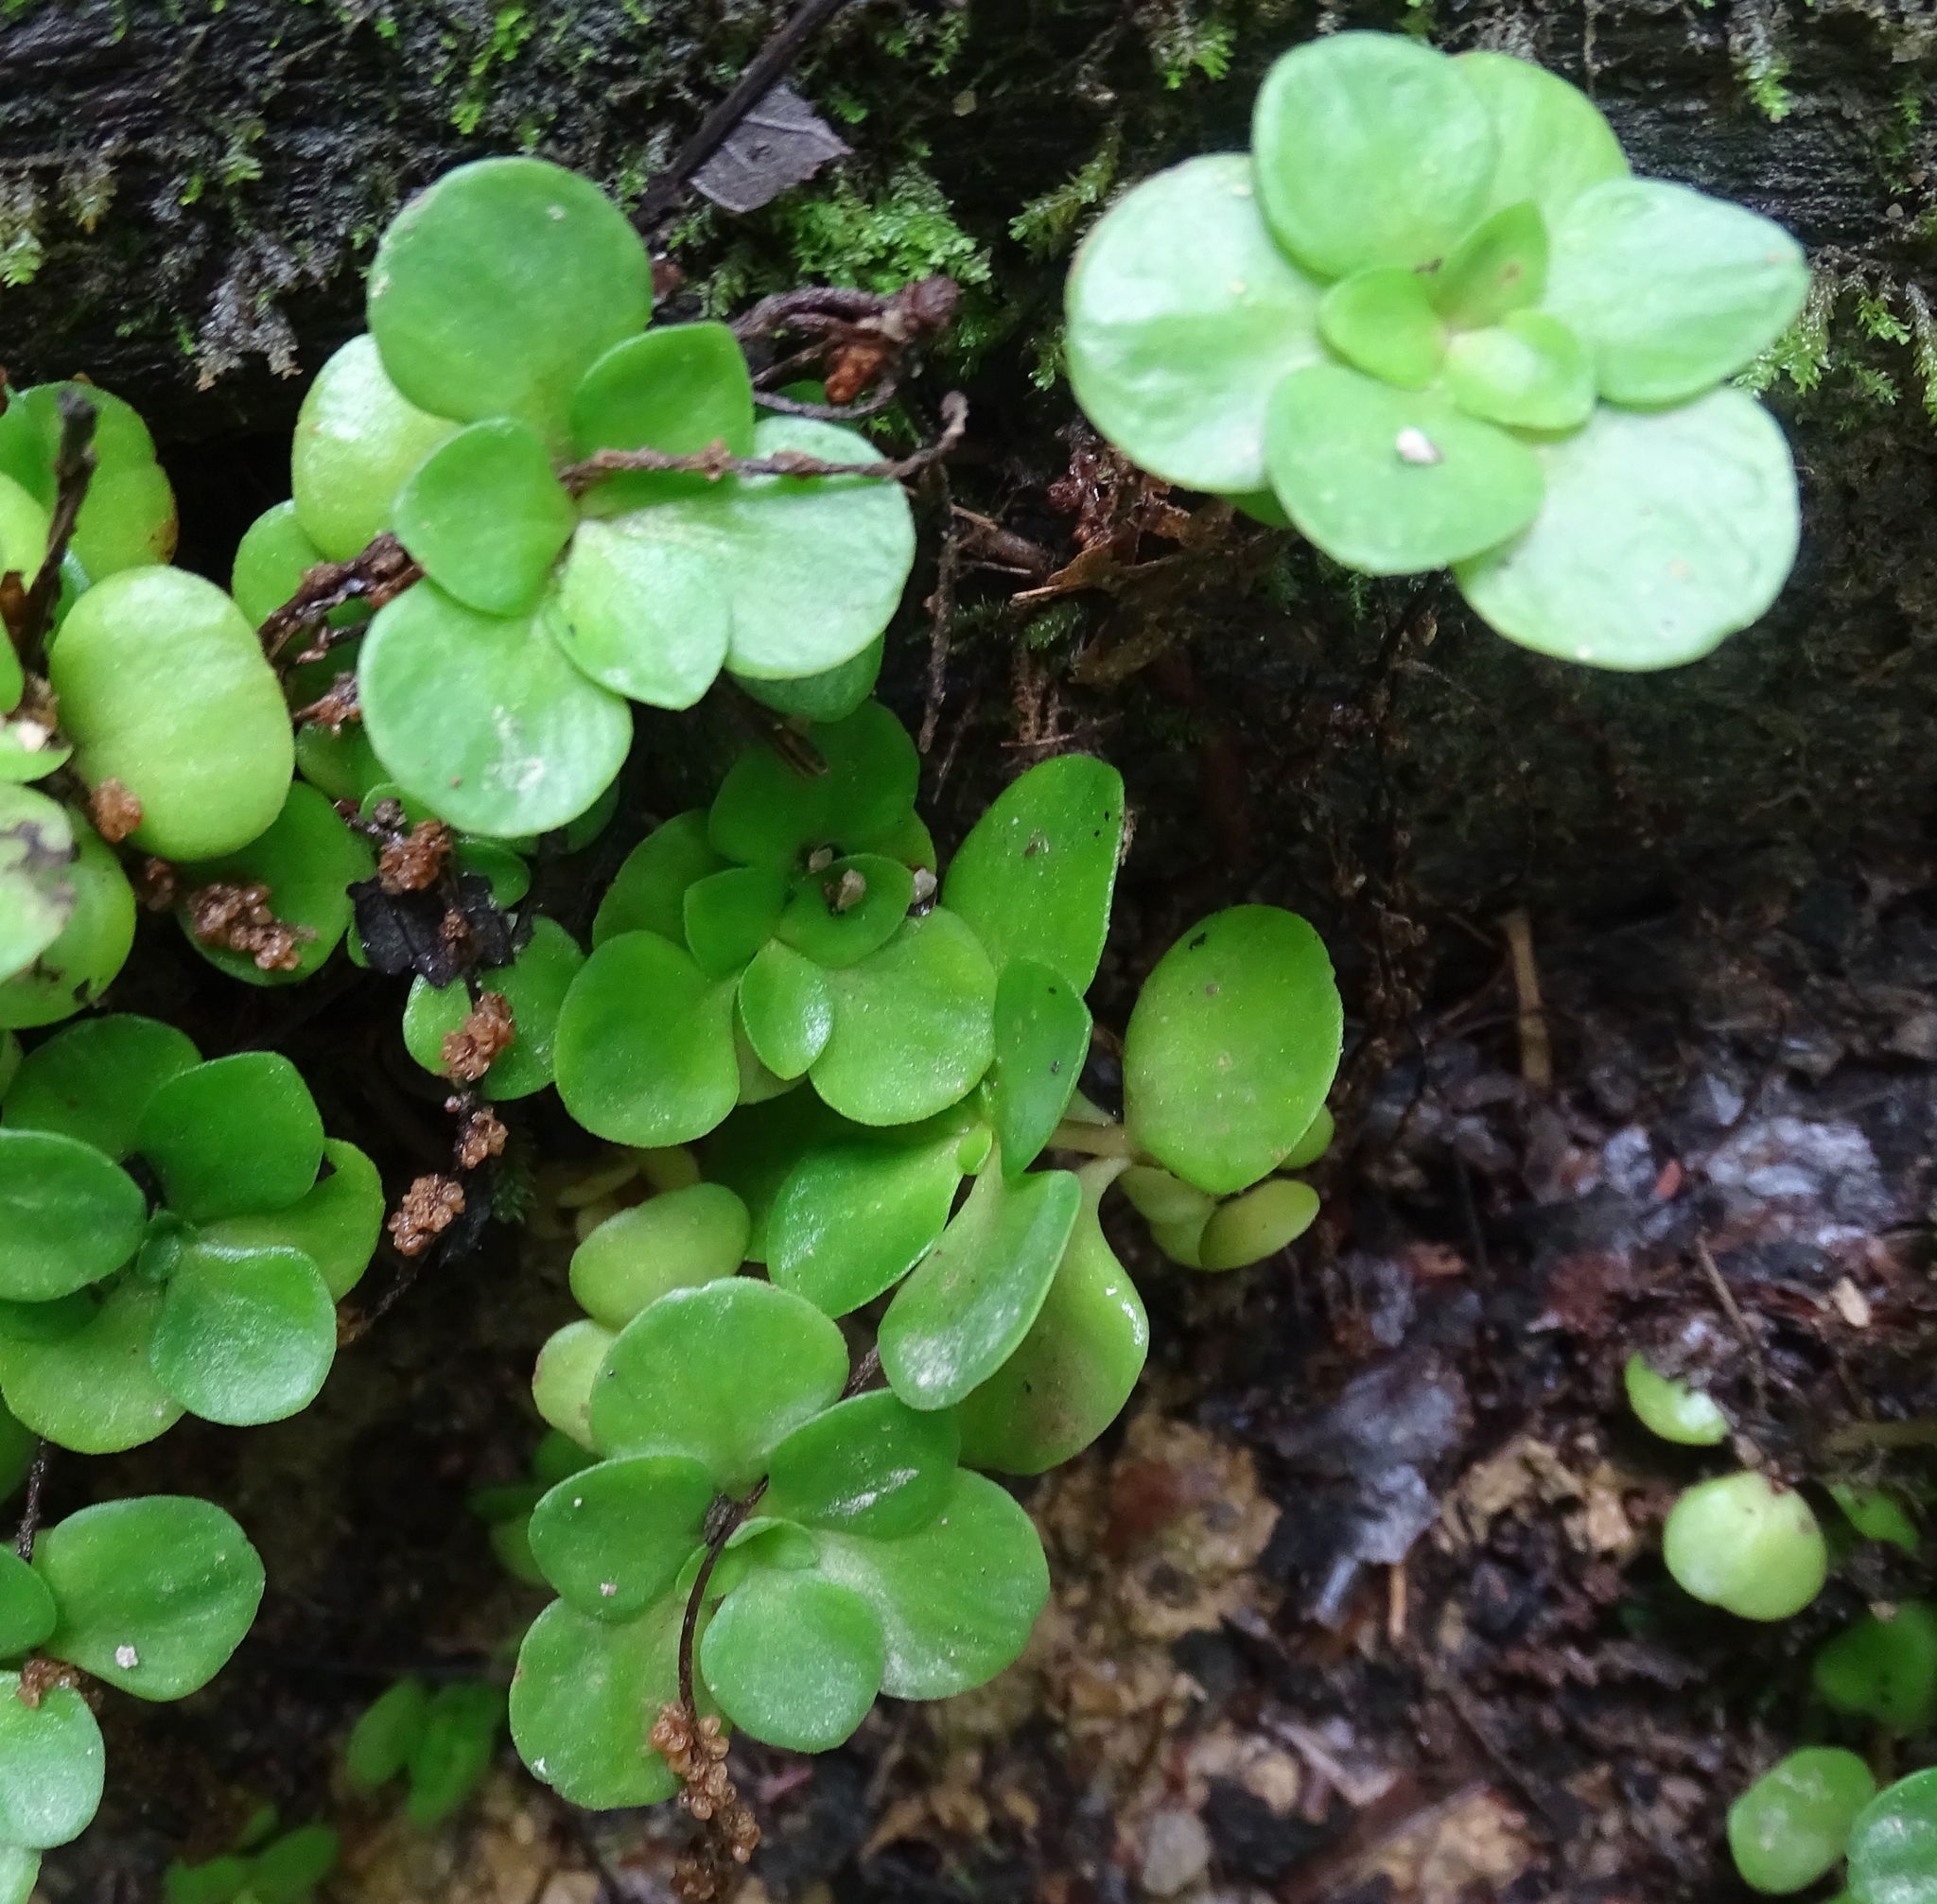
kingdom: Plantae
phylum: Tracheophyta
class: Magnoliopsida
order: Saxifragales
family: Crassulaceae
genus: Sedum
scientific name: Sedum ternatum
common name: Wild stonecrop
